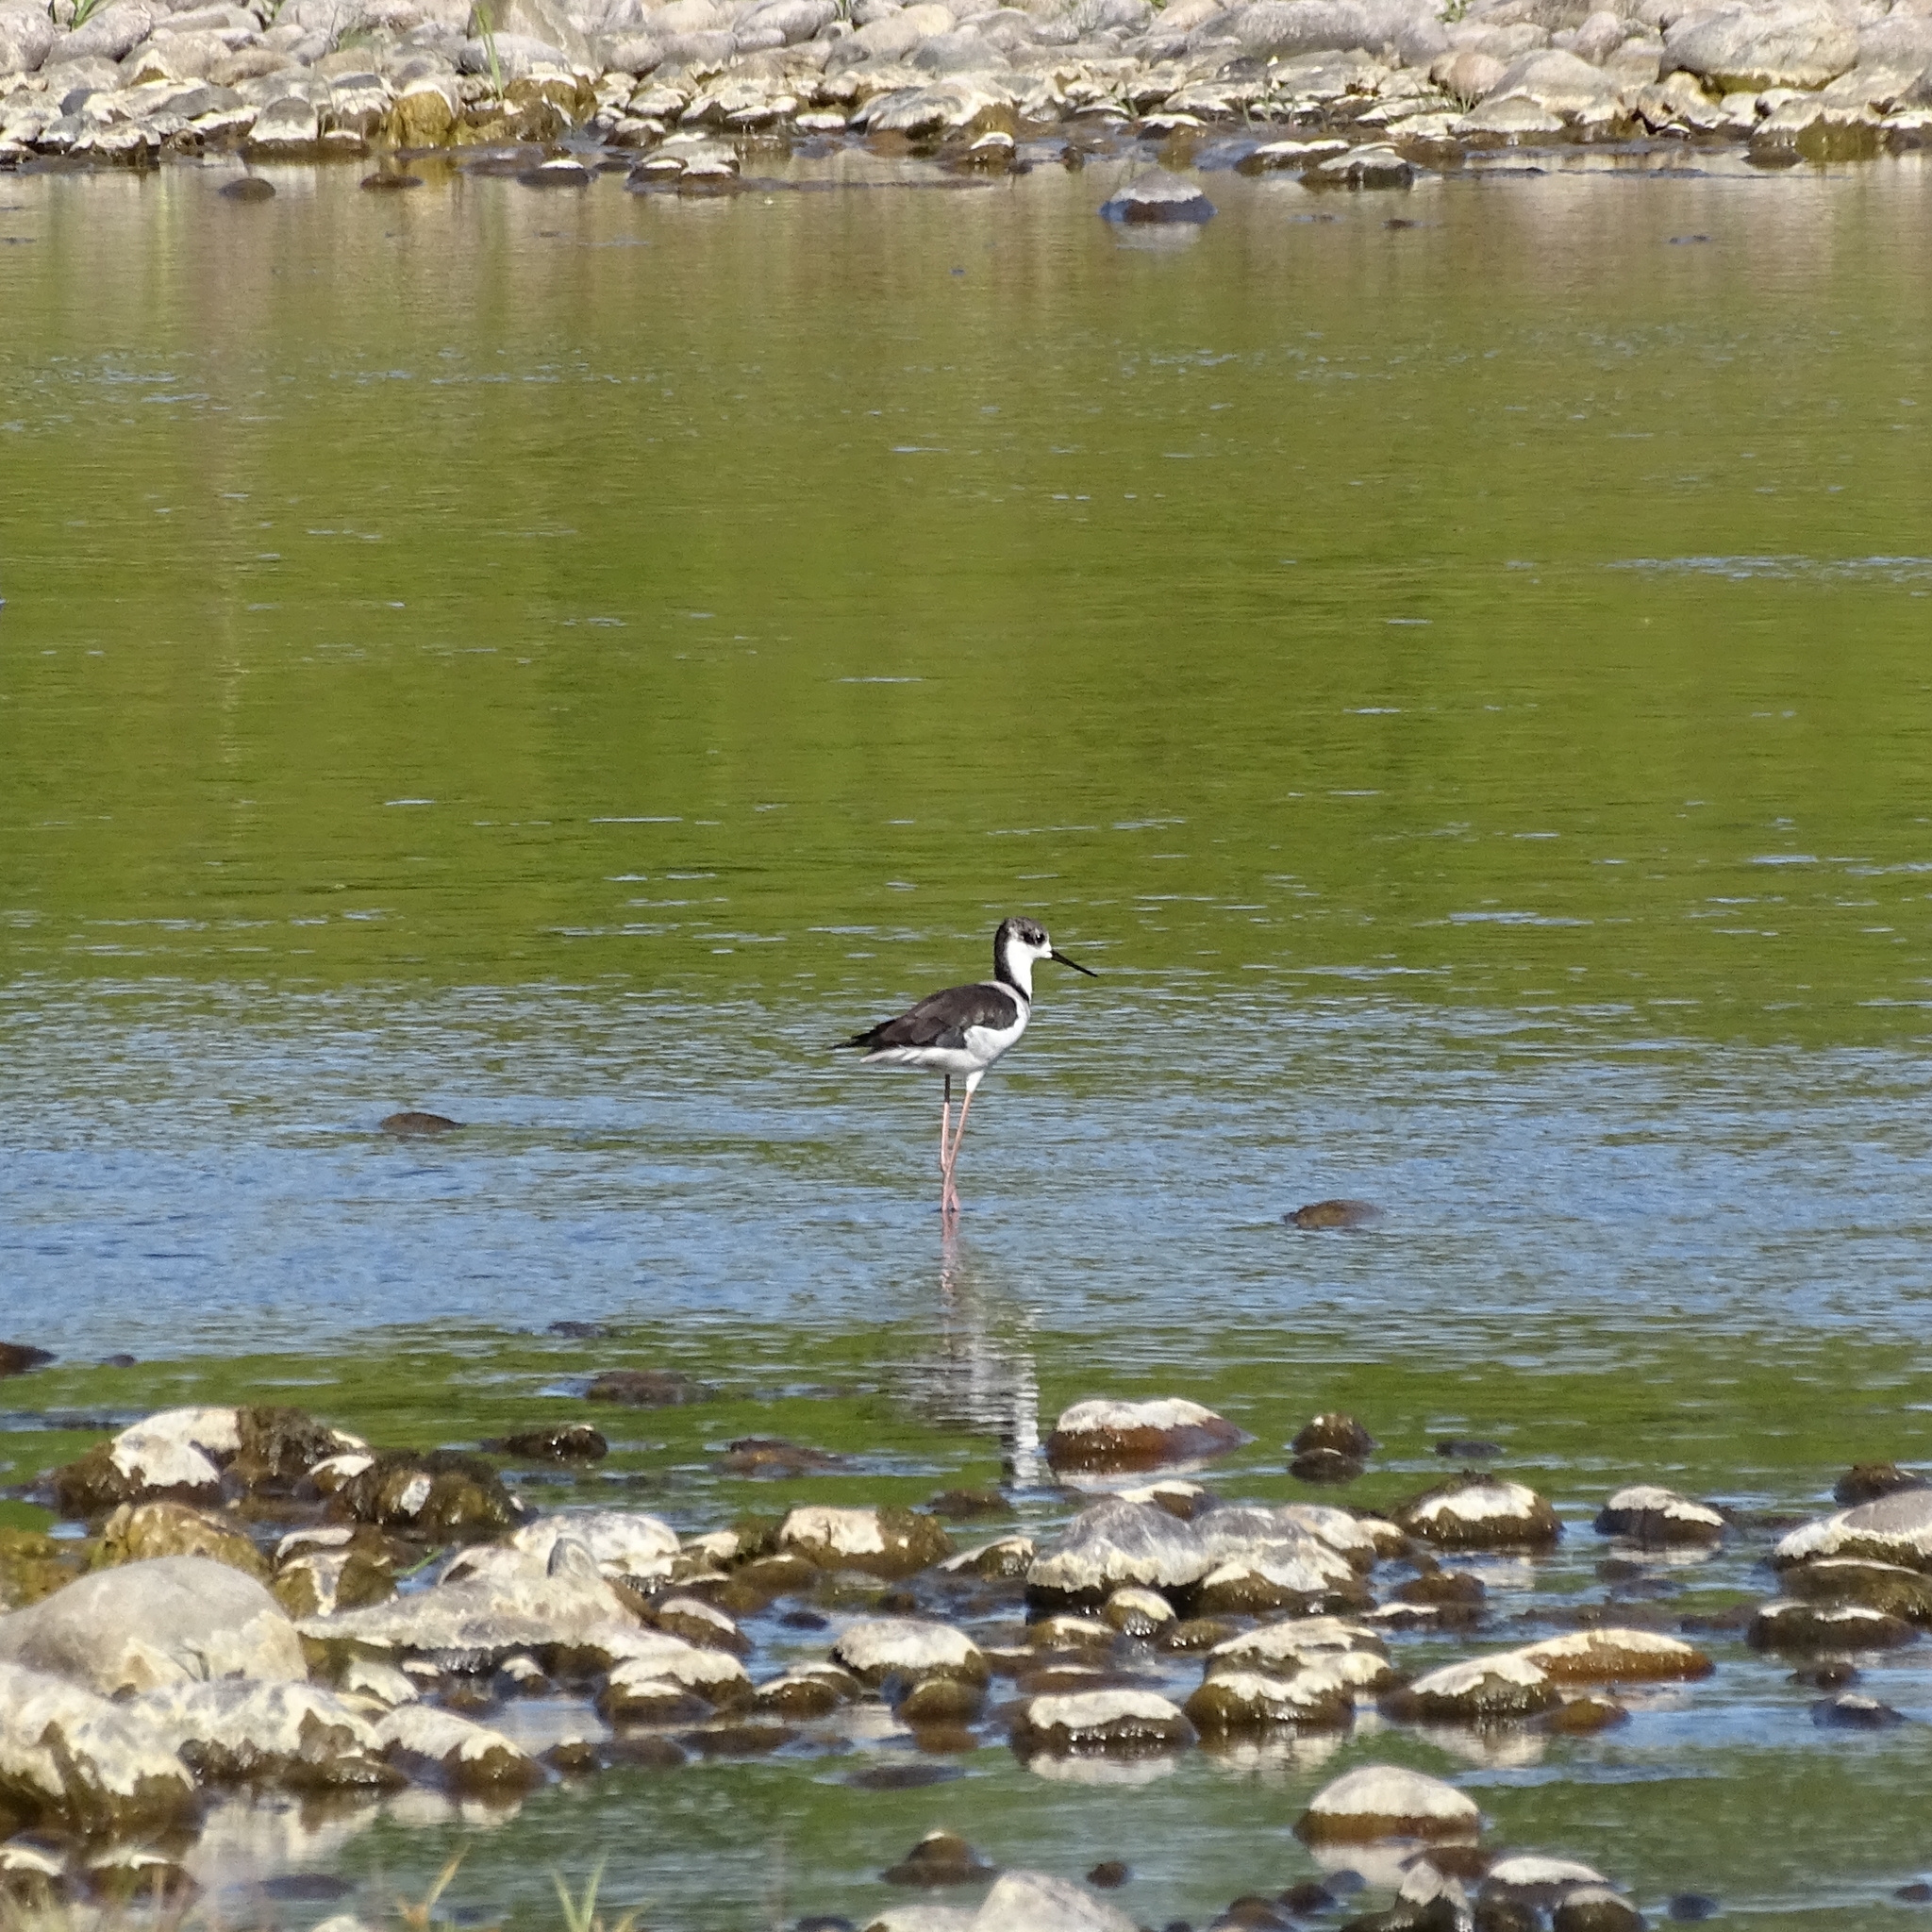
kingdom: Animalia
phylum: Chordata
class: Aves
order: Charadriiformes
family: Recurvirostridae
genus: Himantopus
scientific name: Himantopus mexicanus
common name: Black-necked stilt
